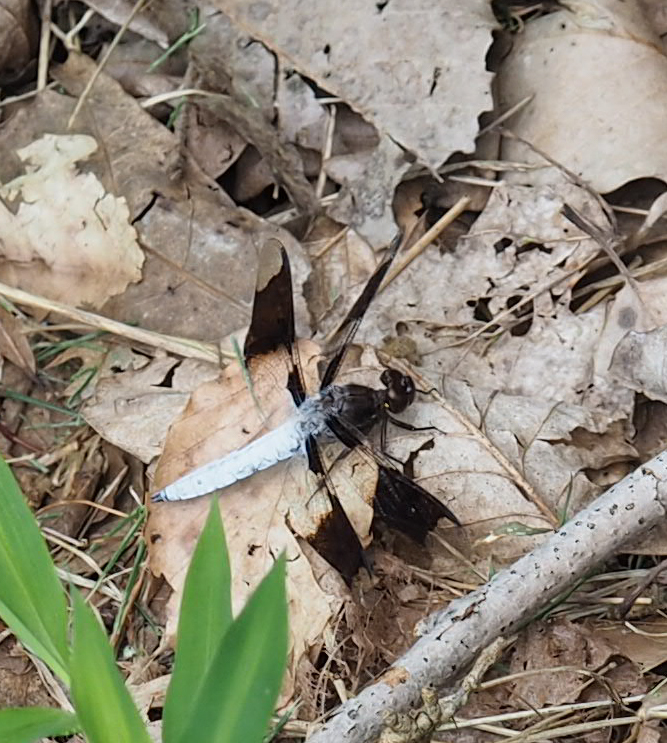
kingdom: Animalia
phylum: Arthropoda
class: Insecta
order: Odonata
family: Libellulidae
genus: Plathemis
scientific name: Plathemis lydia
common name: Common whitetail
